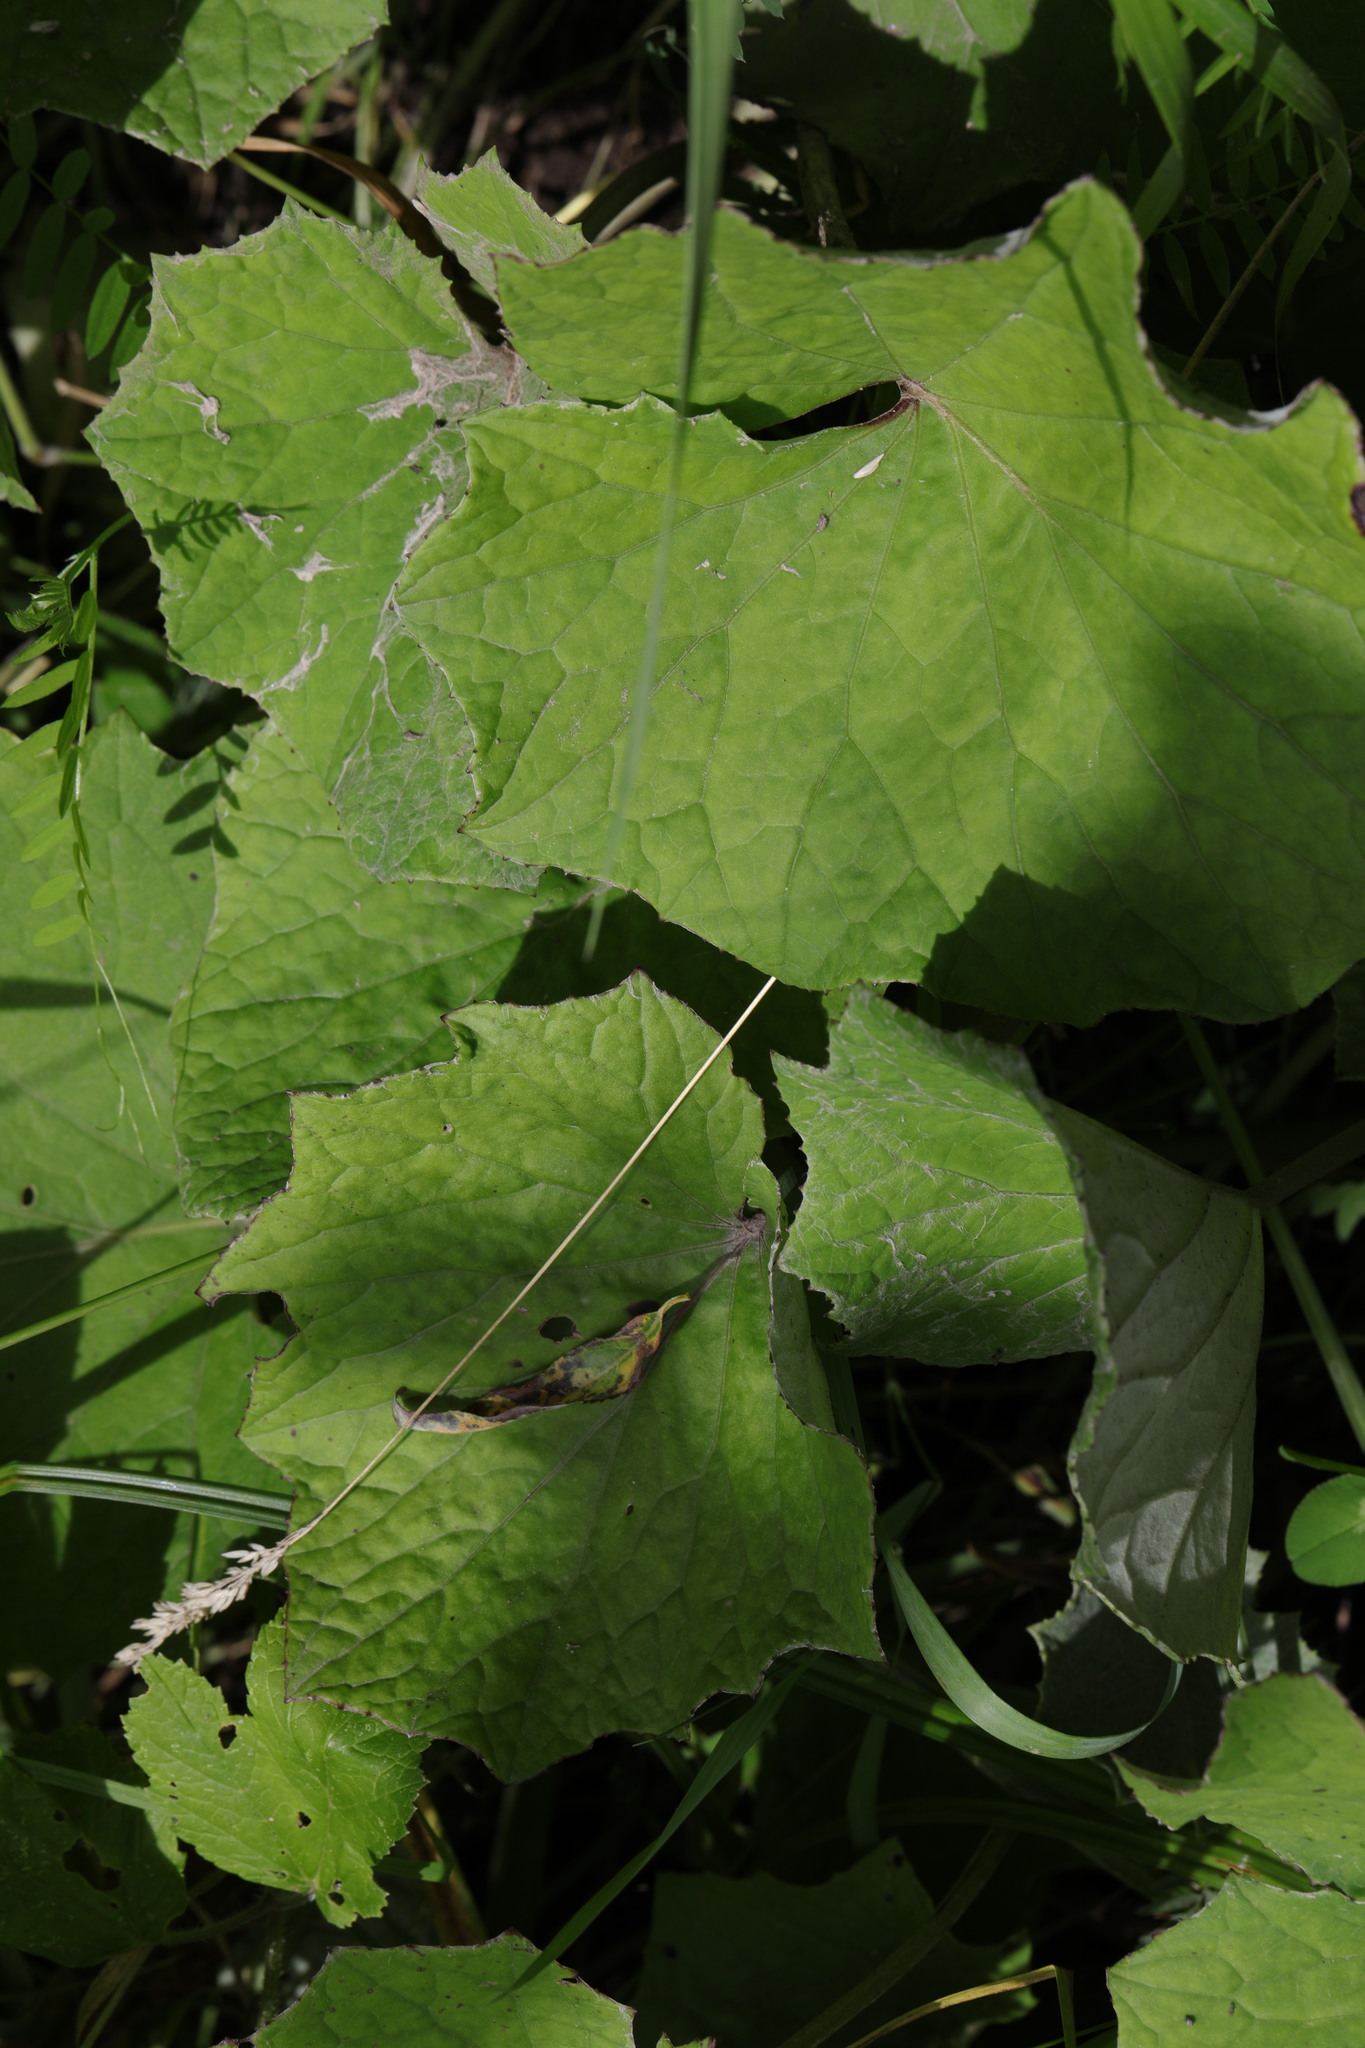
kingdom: Plantae
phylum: Tracheophyta
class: Magnoliopsida
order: Asterales
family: Asteraceae
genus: Tussilago
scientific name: Tussilago farfara
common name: Coltsfoot
